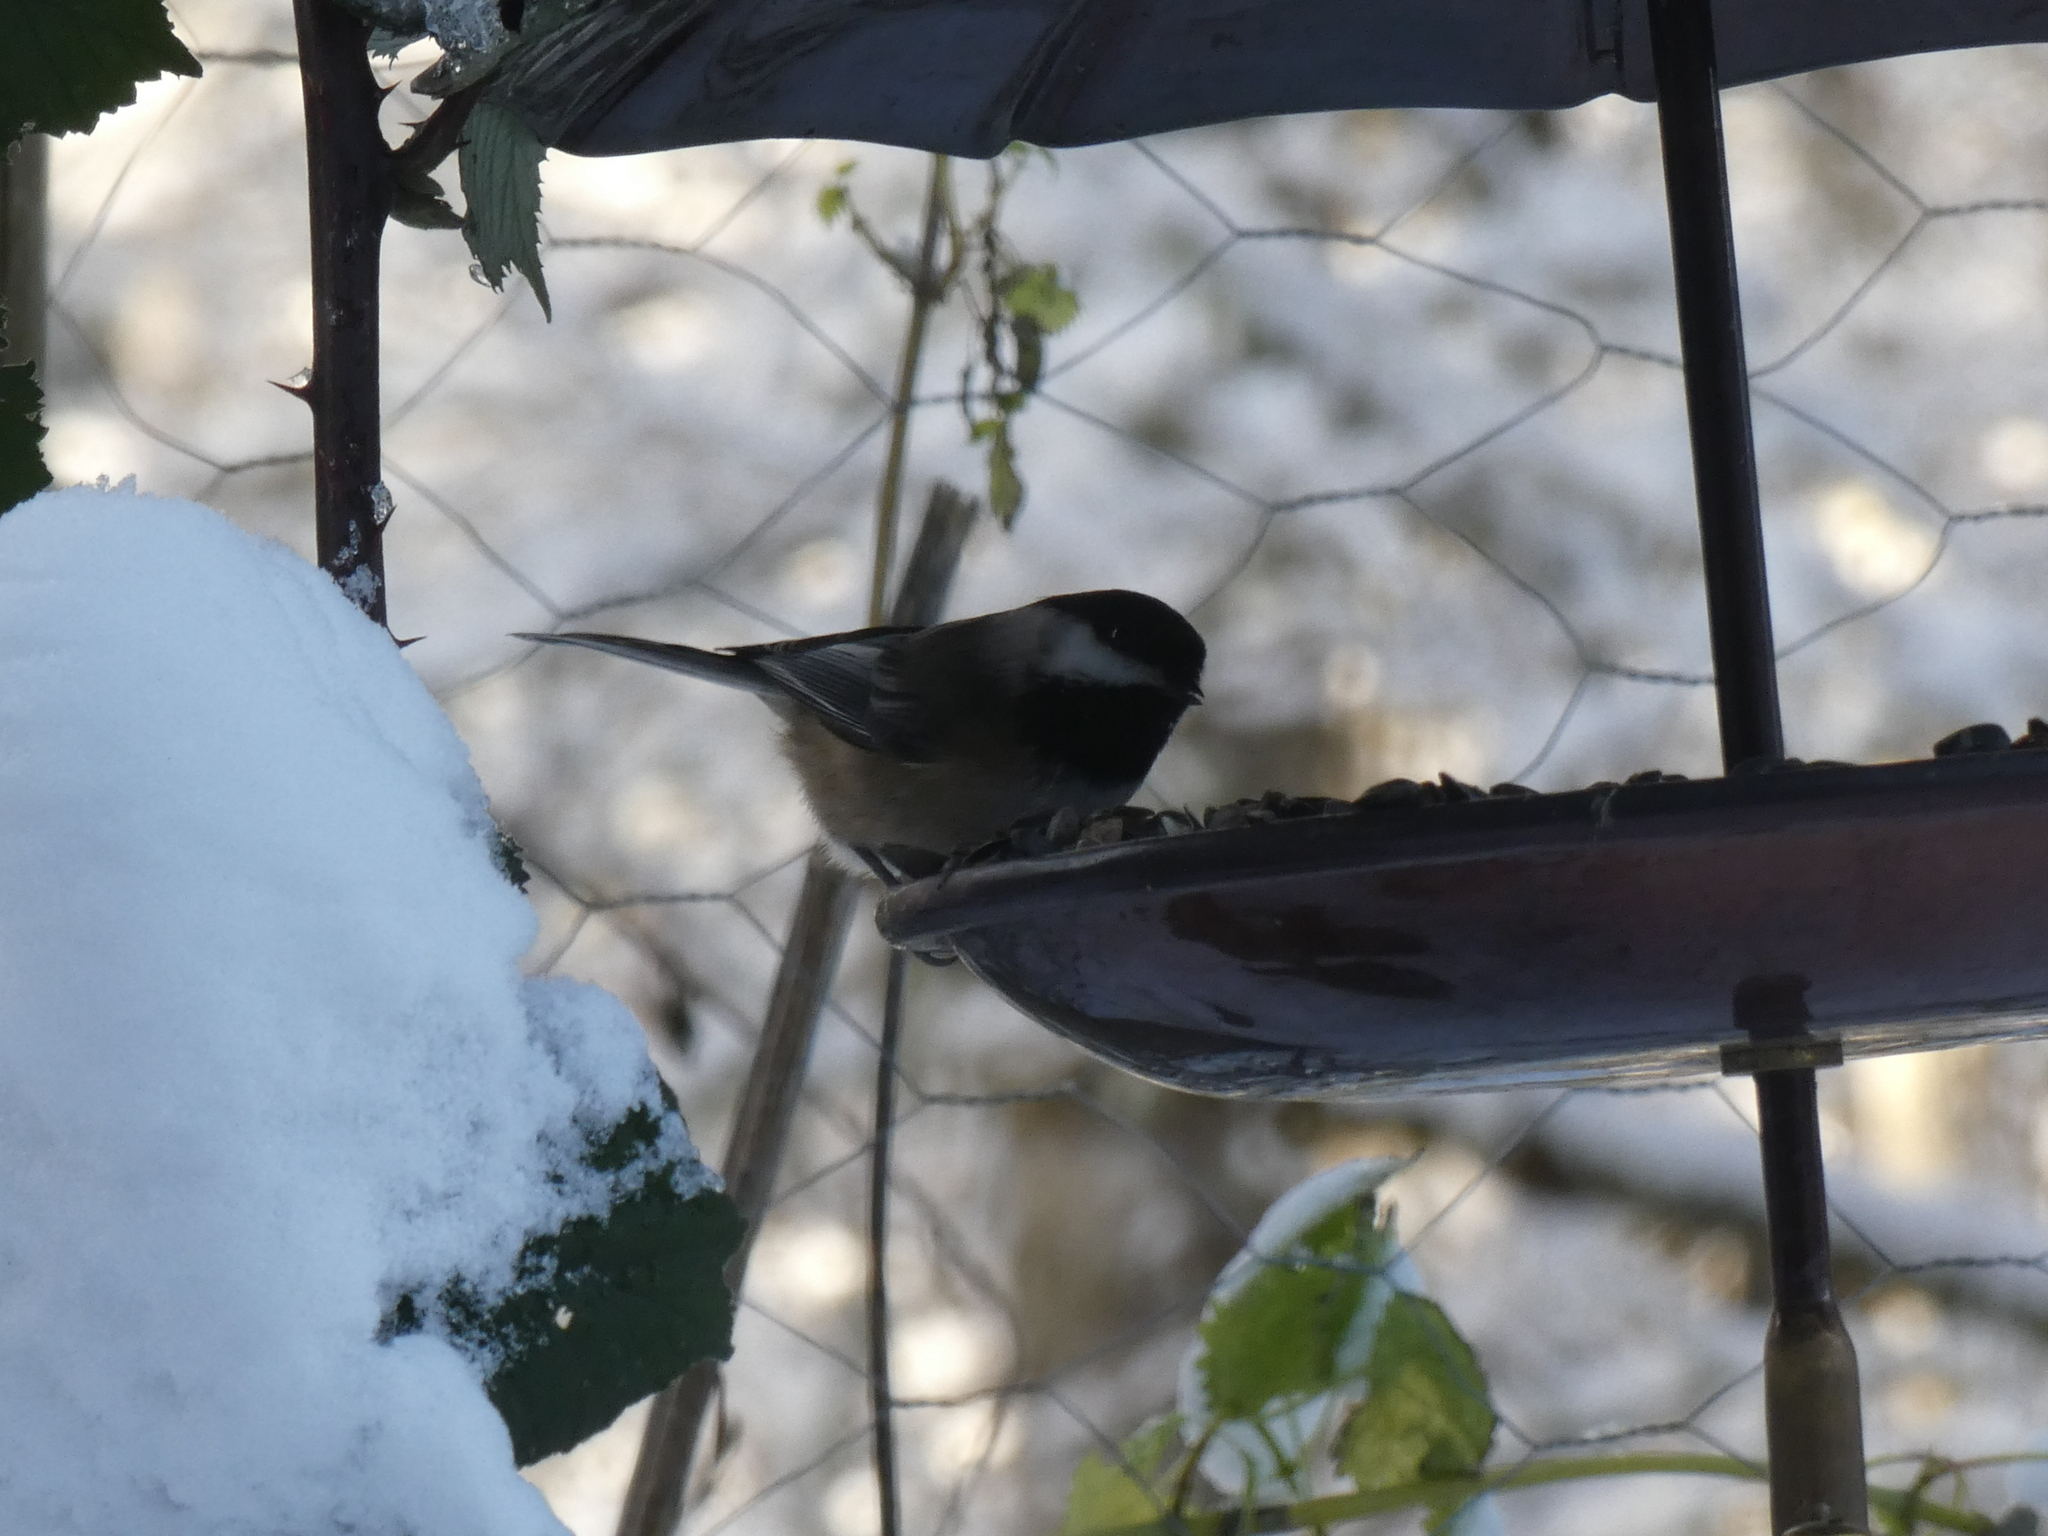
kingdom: Animalia
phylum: Chordata
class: Aves
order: Passeriformes
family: Paridae
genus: Poecile
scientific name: Poecile atricapillus
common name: Black-capped chickadee
